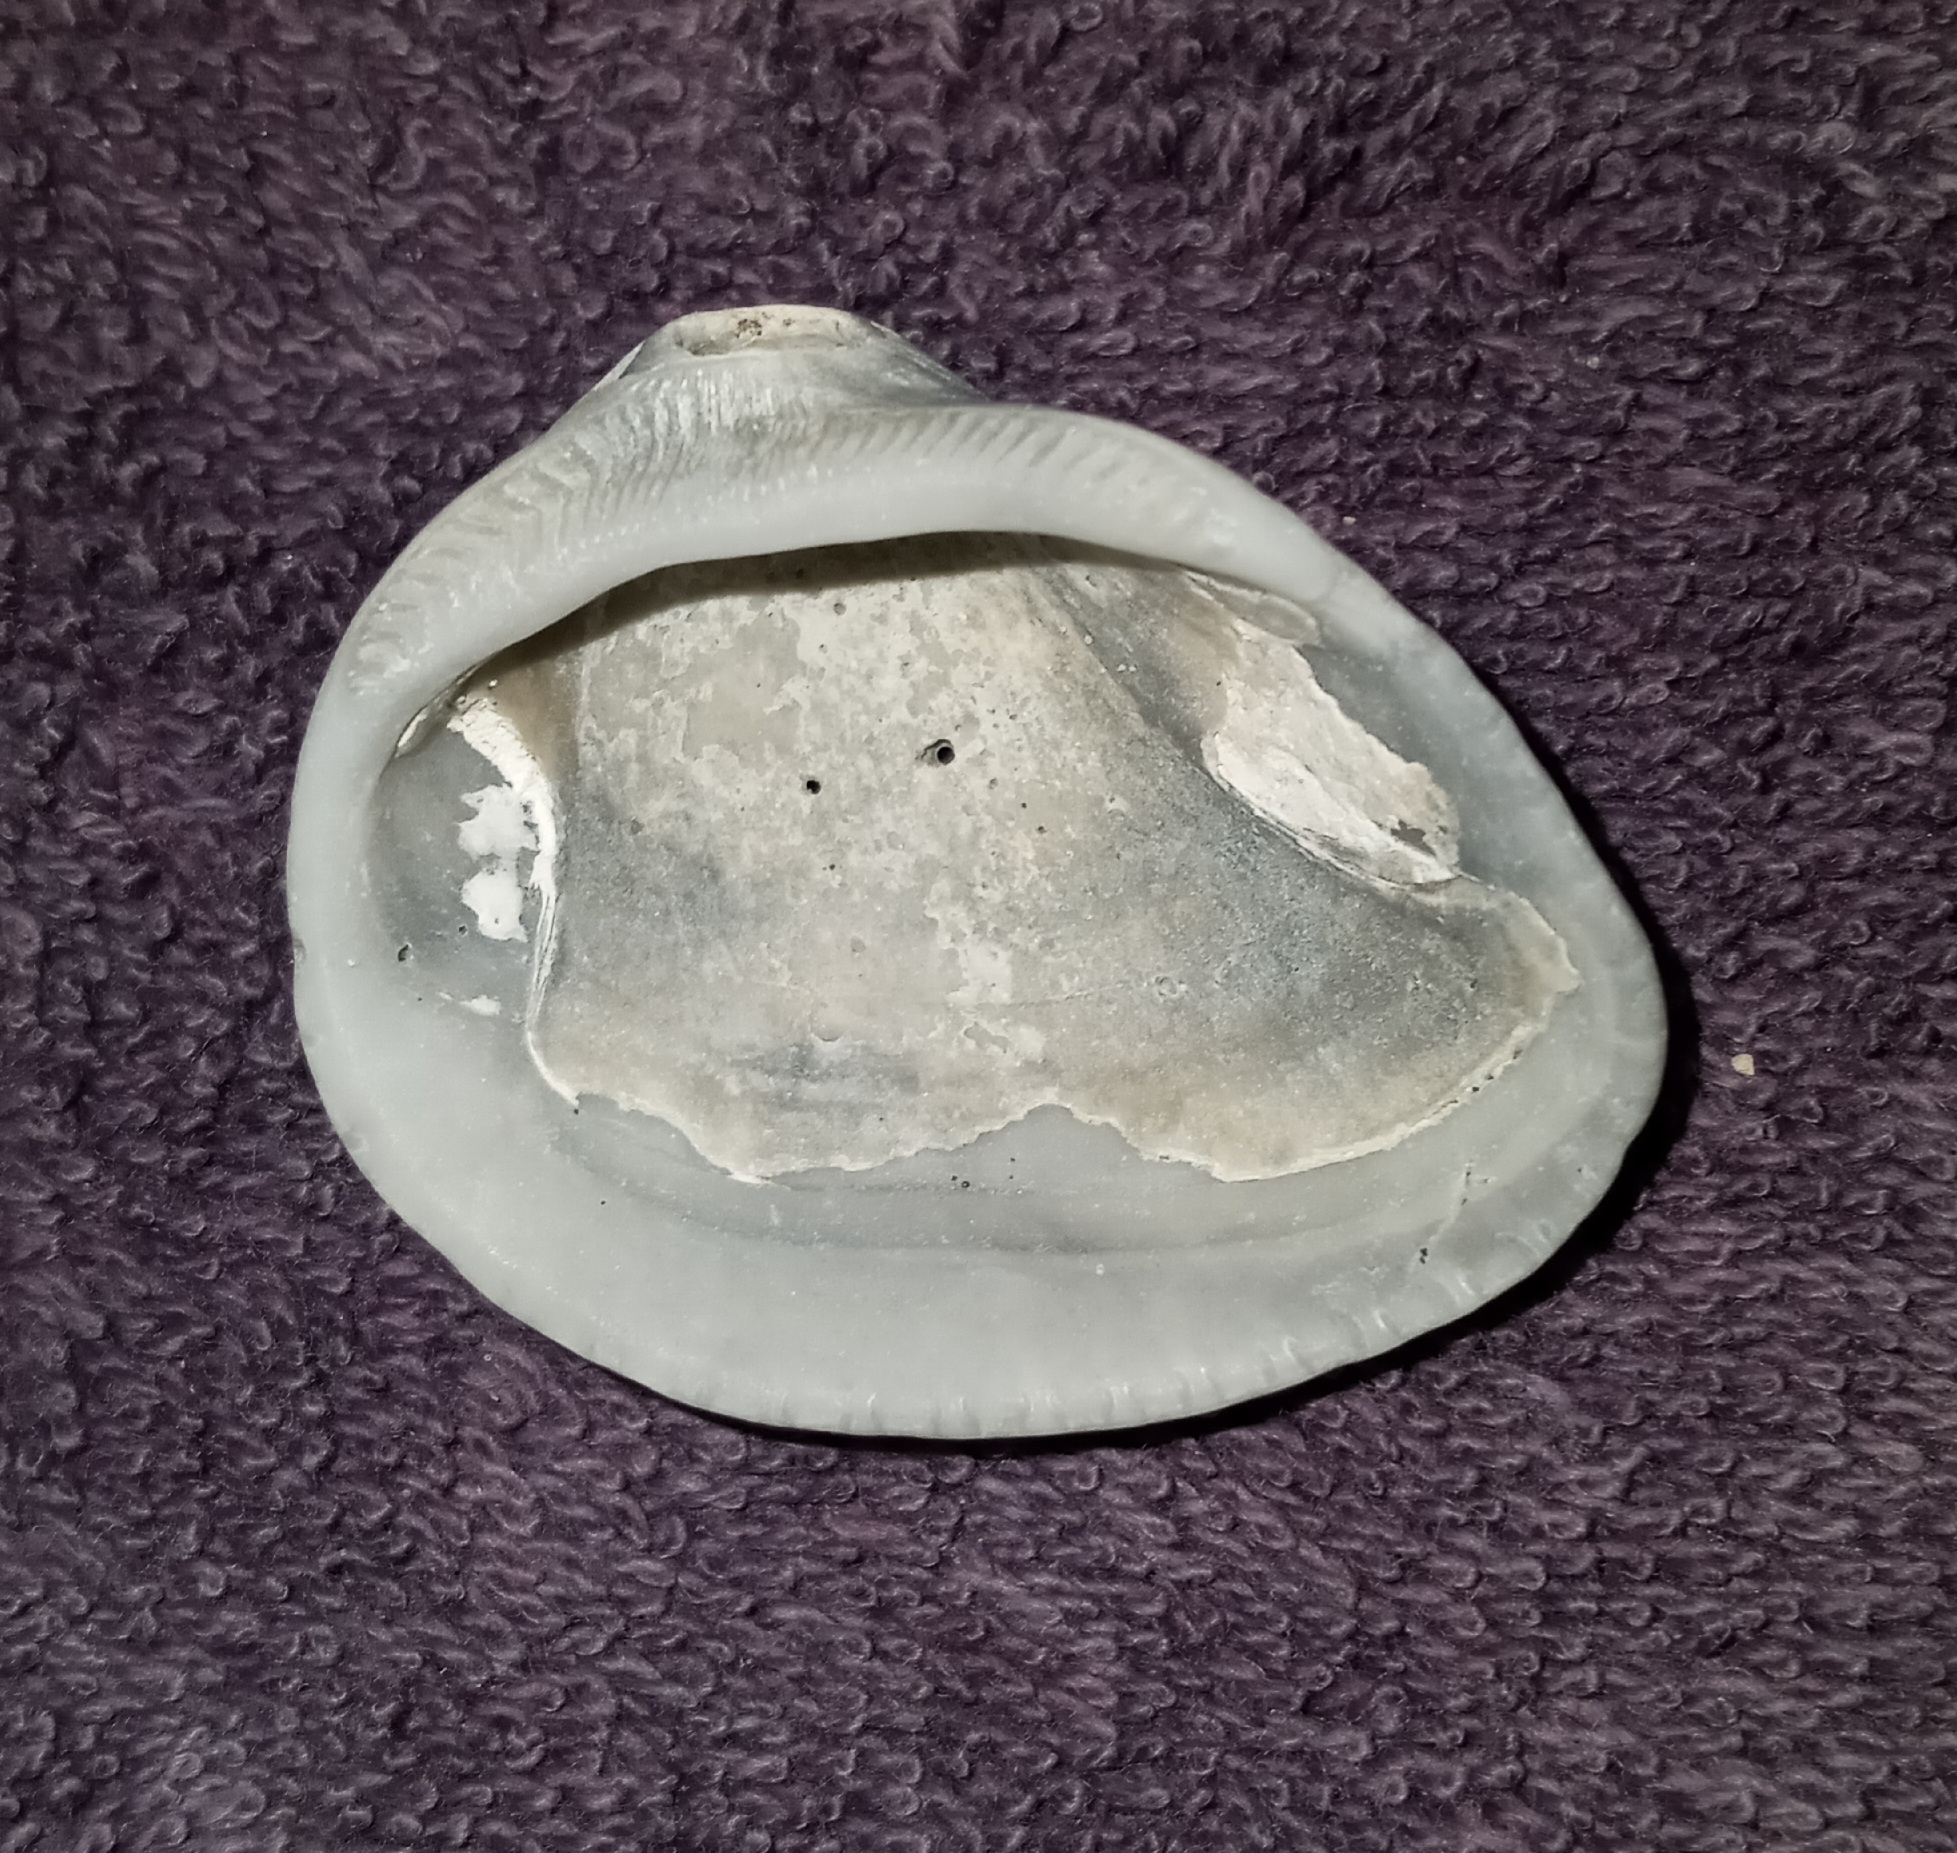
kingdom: Animalia
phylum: Mollusca
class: Bivalvia
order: Arcida
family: Noetiidae
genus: Noetia
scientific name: Noetia ponderosa
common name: Ponderous ark
